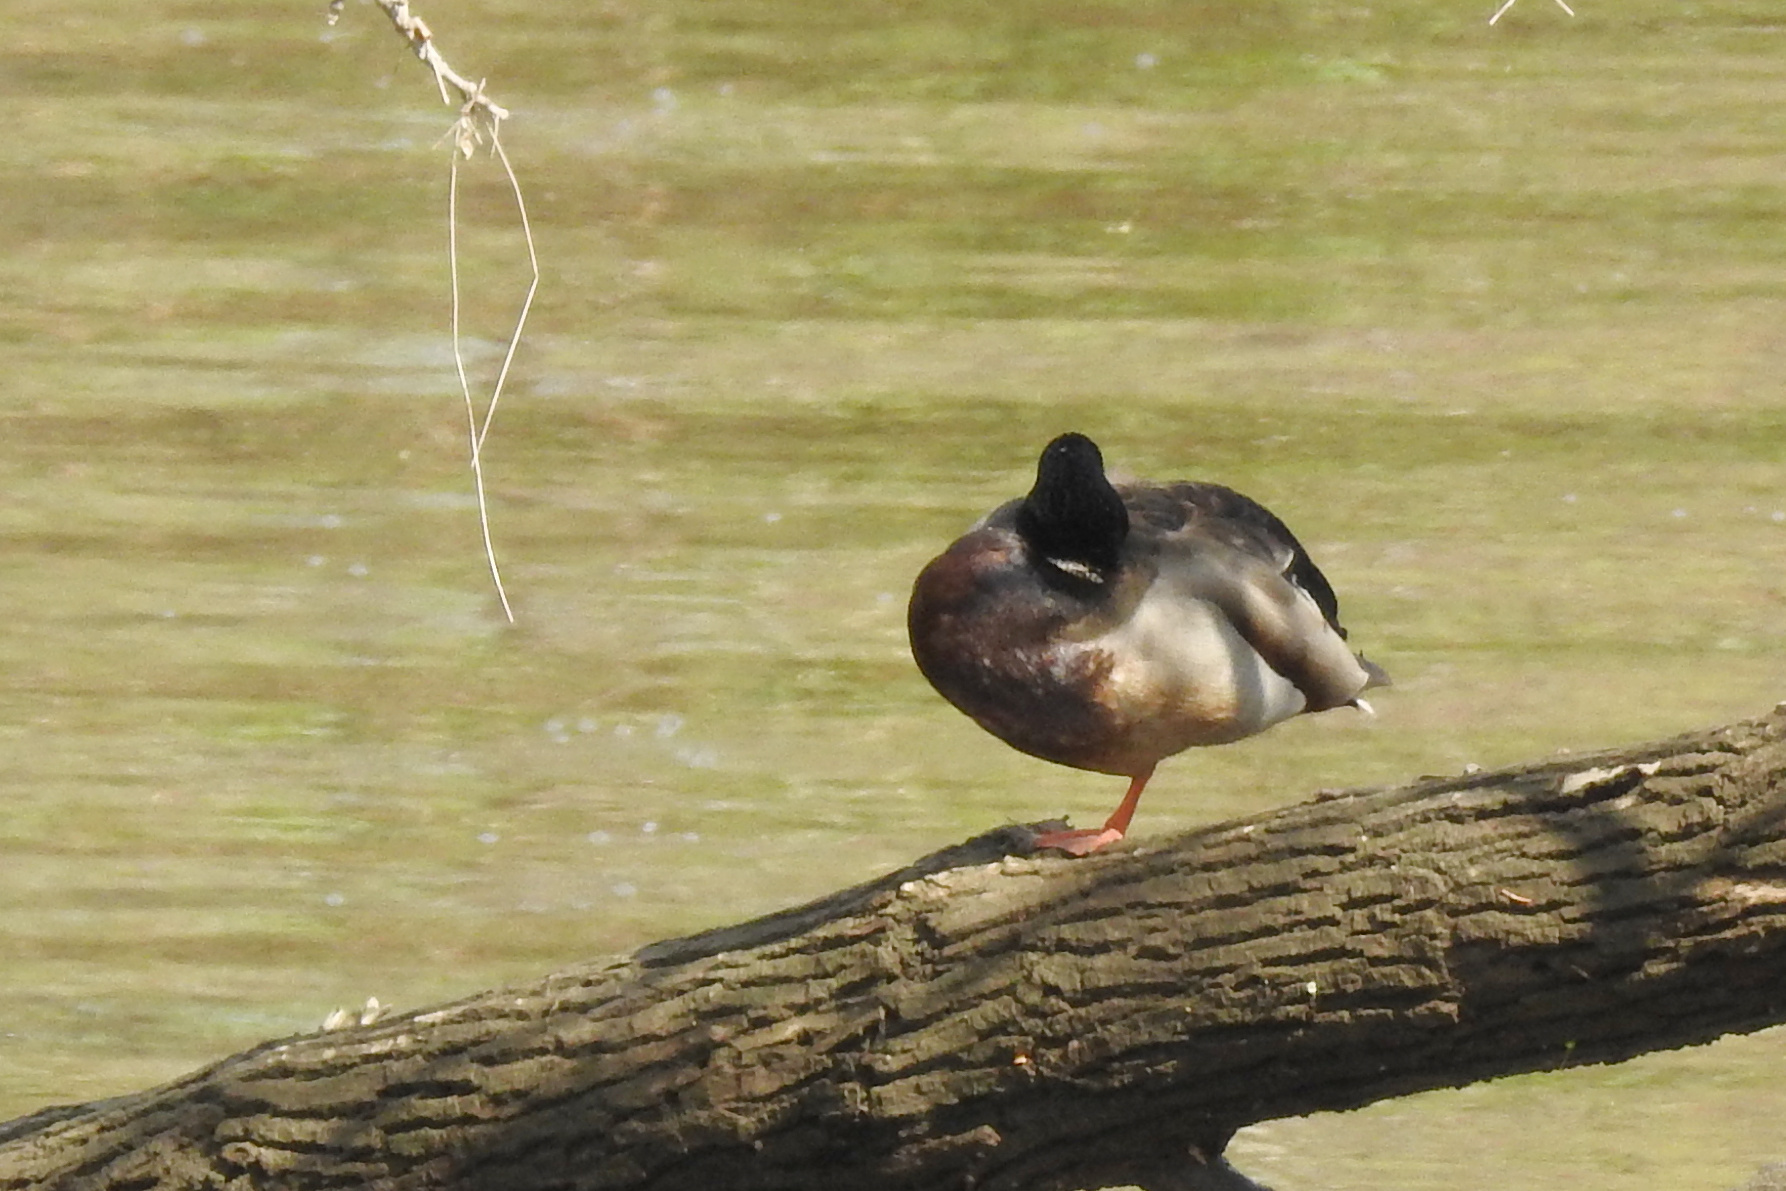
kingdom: Animalia
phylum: Chordata
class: Aves
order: Anseriformes
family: Anatidae
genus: Anas
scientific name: Anas platyrhynchos
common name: Mallard
